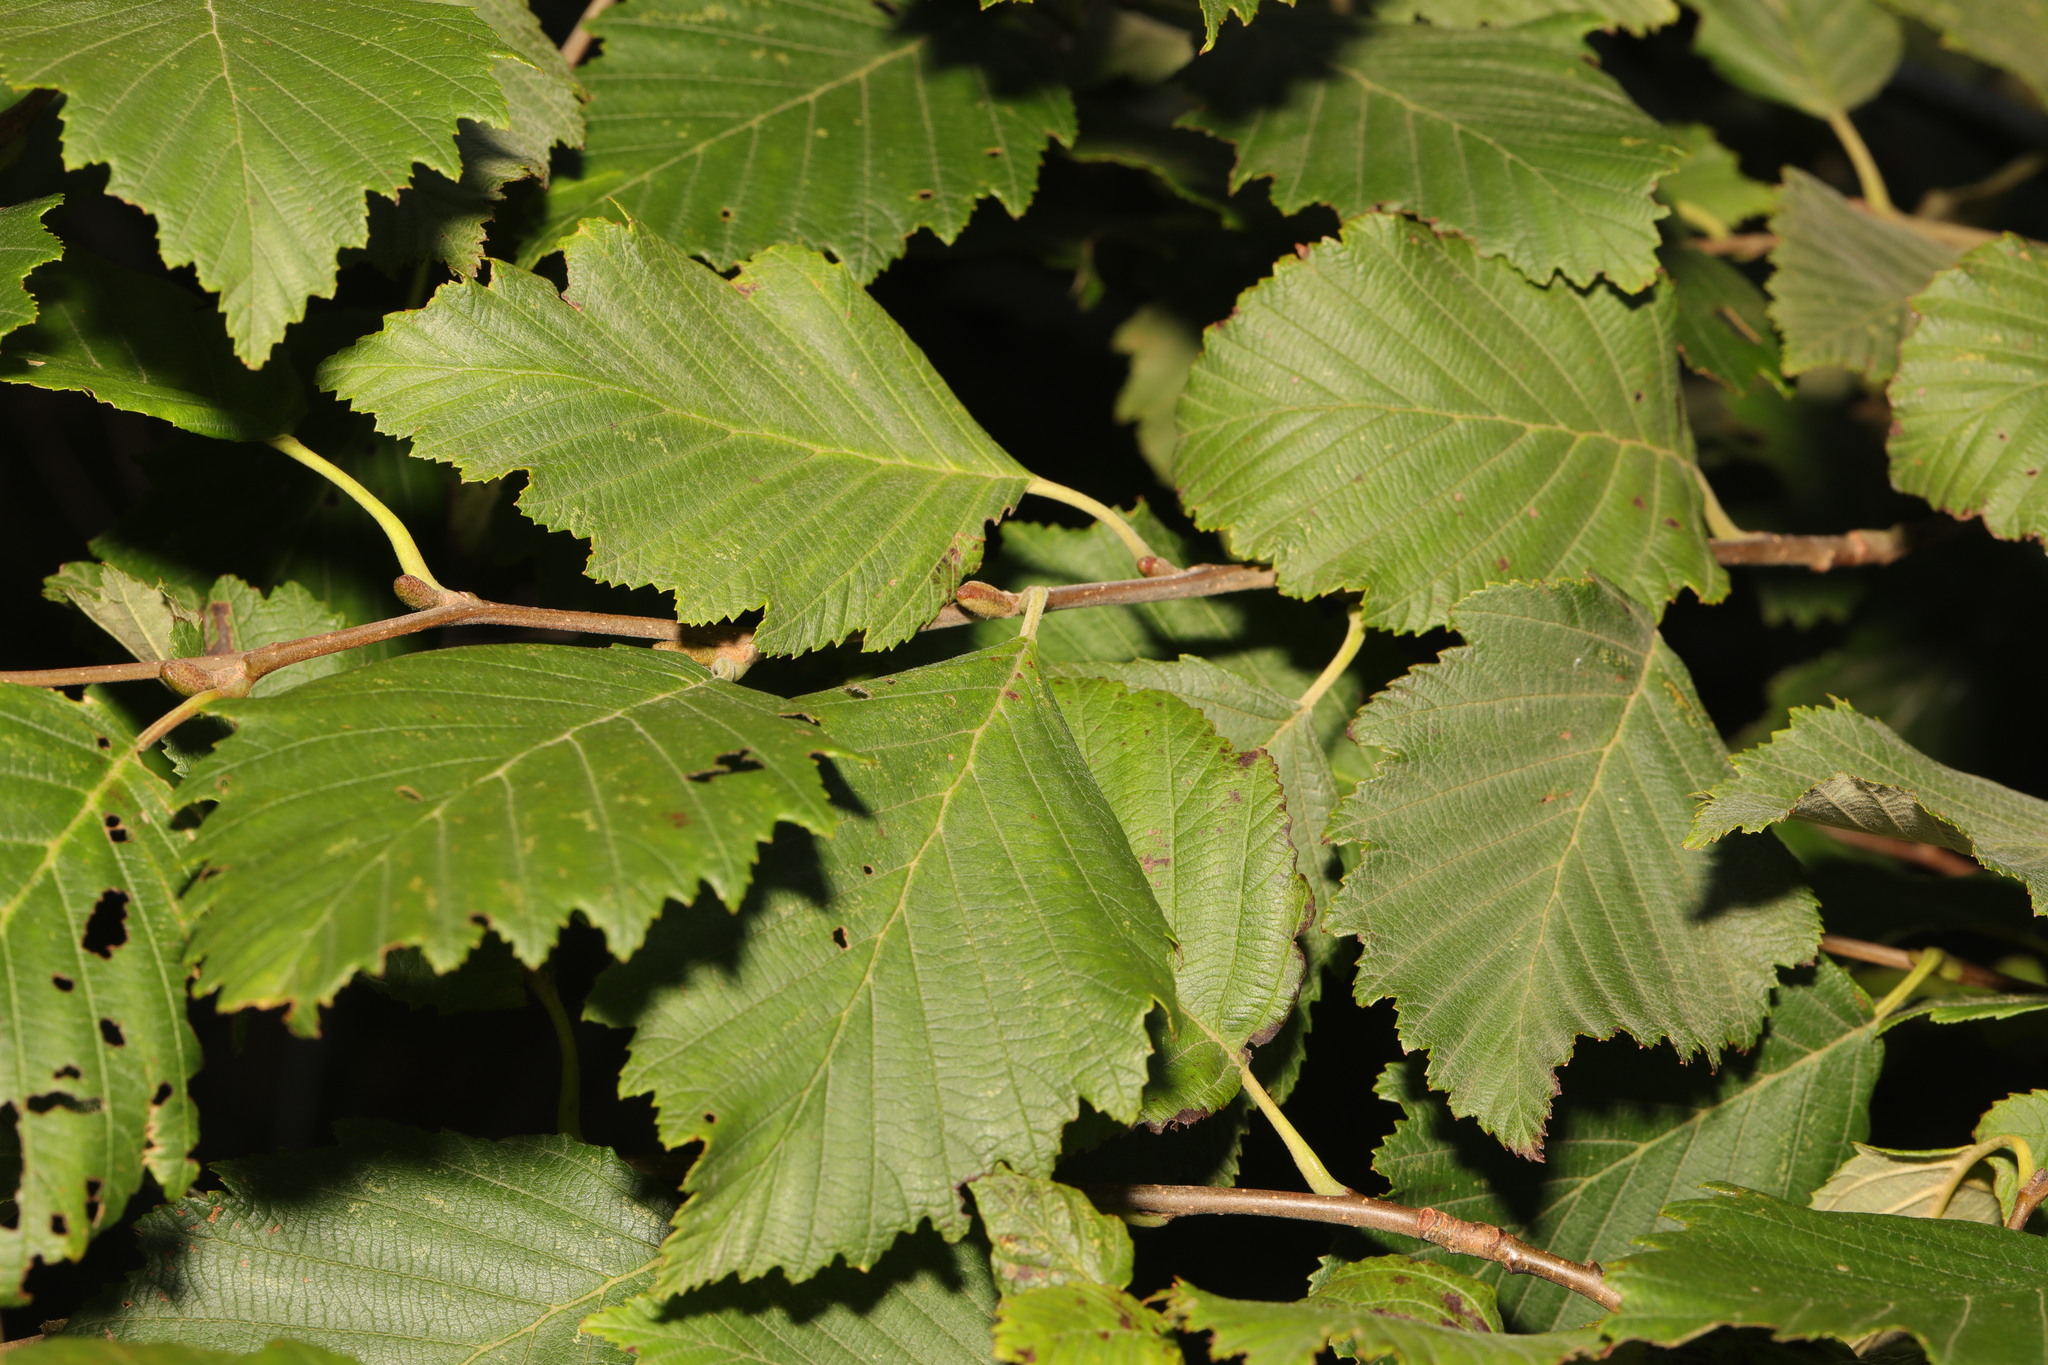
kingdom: Plantae
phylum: Tracheophyta
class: Magnoliopsida
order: Fagales
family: Betulaceae
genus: Alnus
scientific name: Alnus incana
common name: Grey alder
